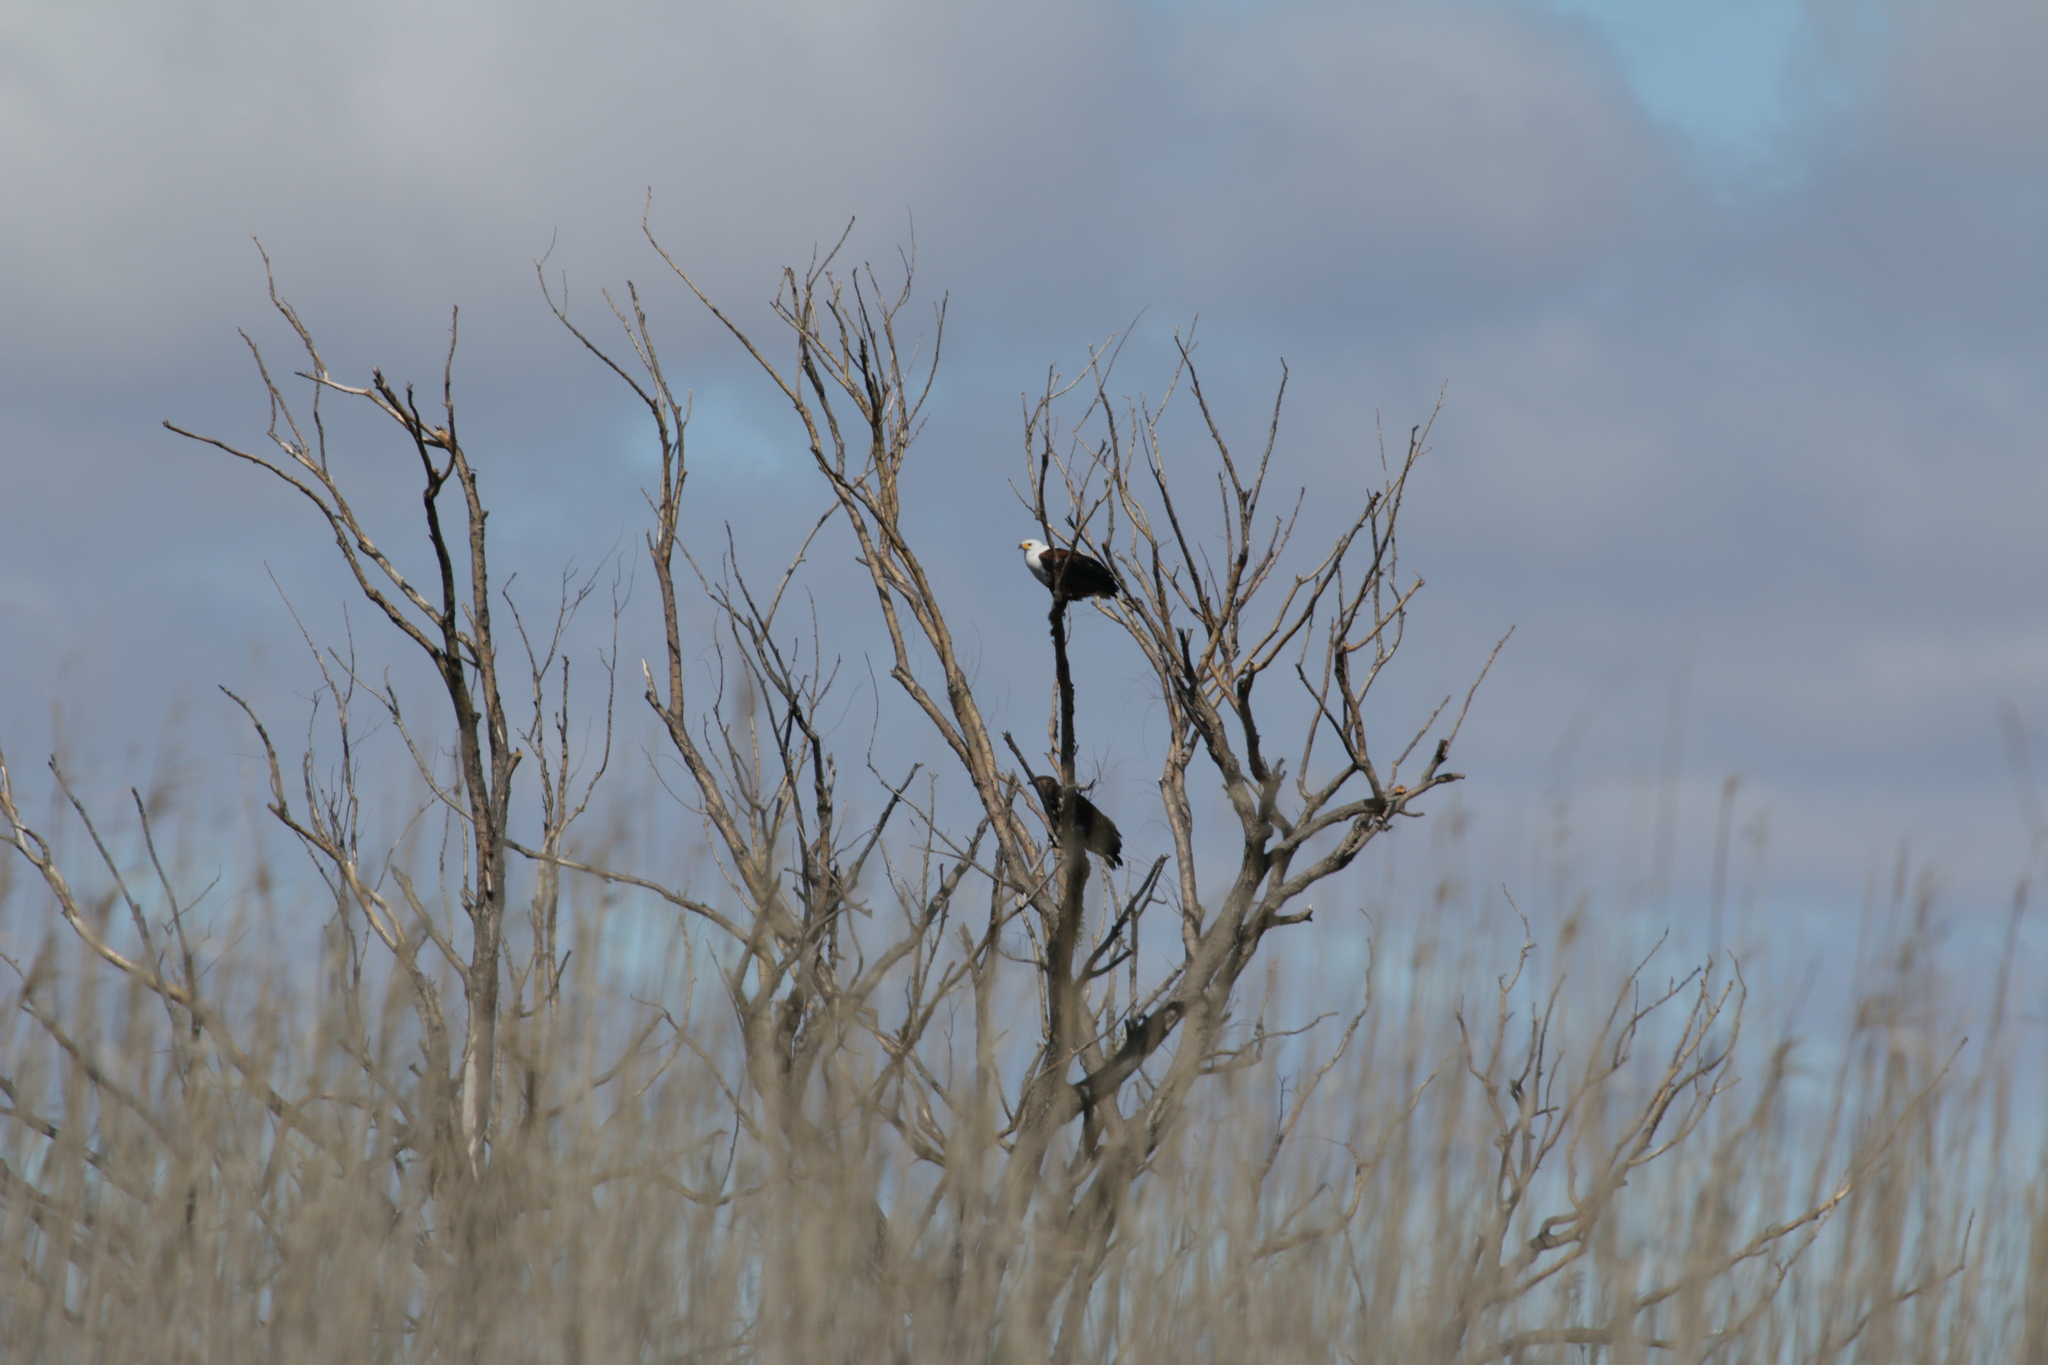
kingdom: Animalia
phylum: Chordata
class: Aves
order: Accipitriformes
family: Accipitridae
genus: Haliaeetus
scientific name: Haliaeetus vocifer
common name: African fish eagle
